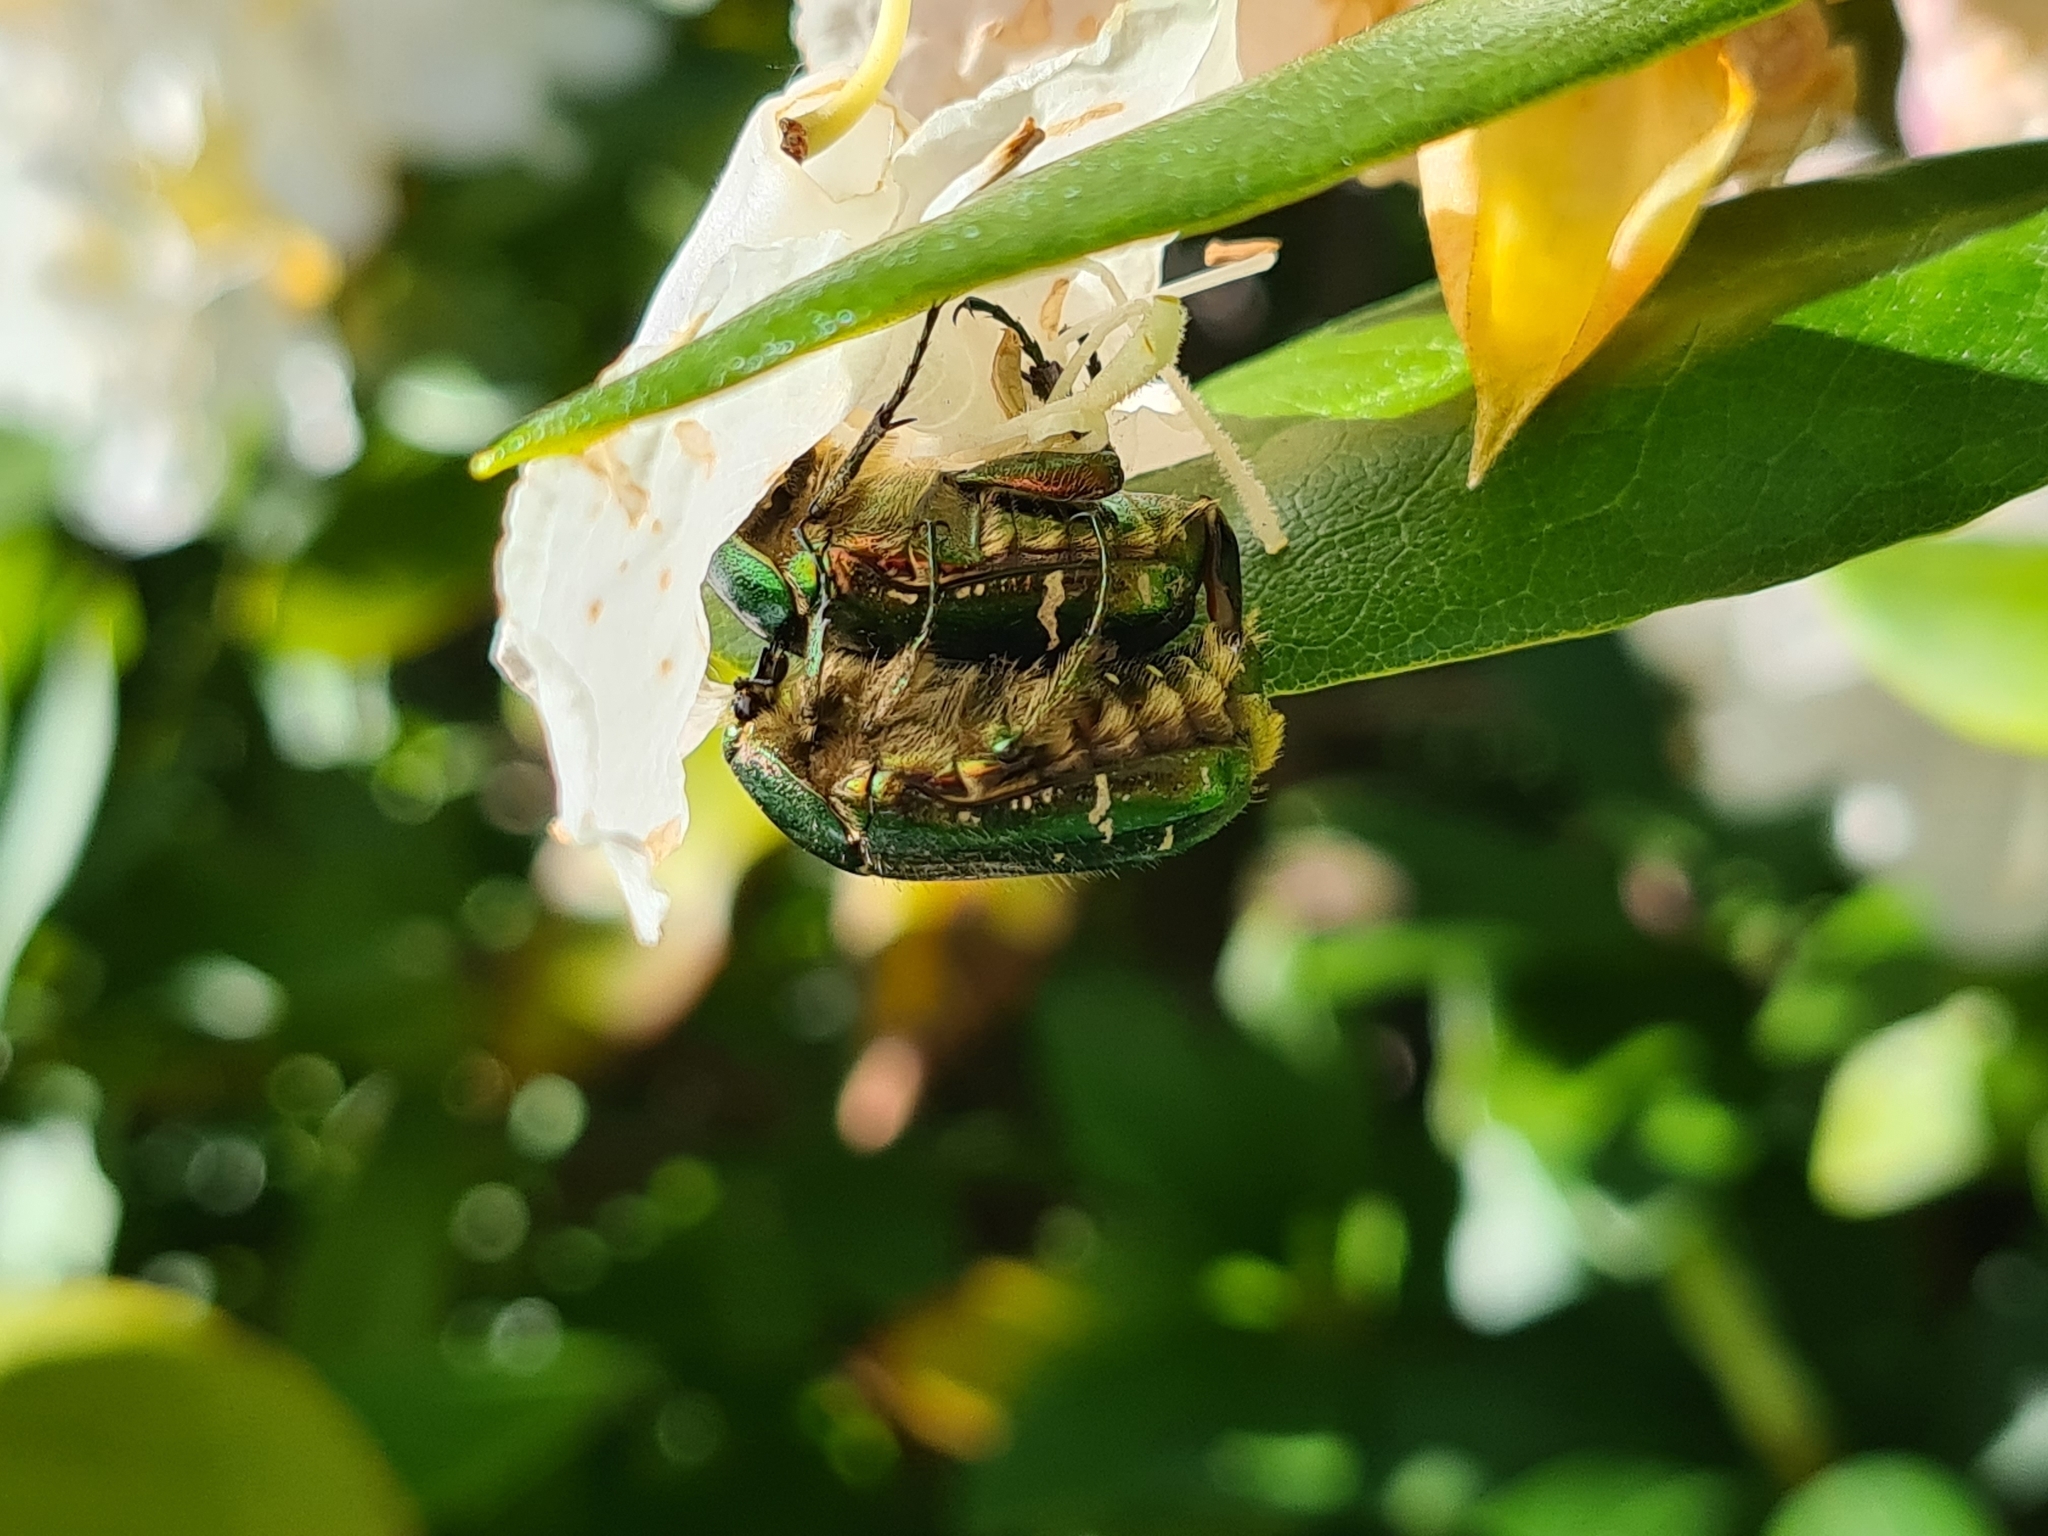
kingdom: Animalia
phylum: Arthropoda
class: Insecta
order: Coleoptera
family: Scarabaeidae
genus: Cetonia
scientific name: Cetonia aurata
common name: Rose chafer
